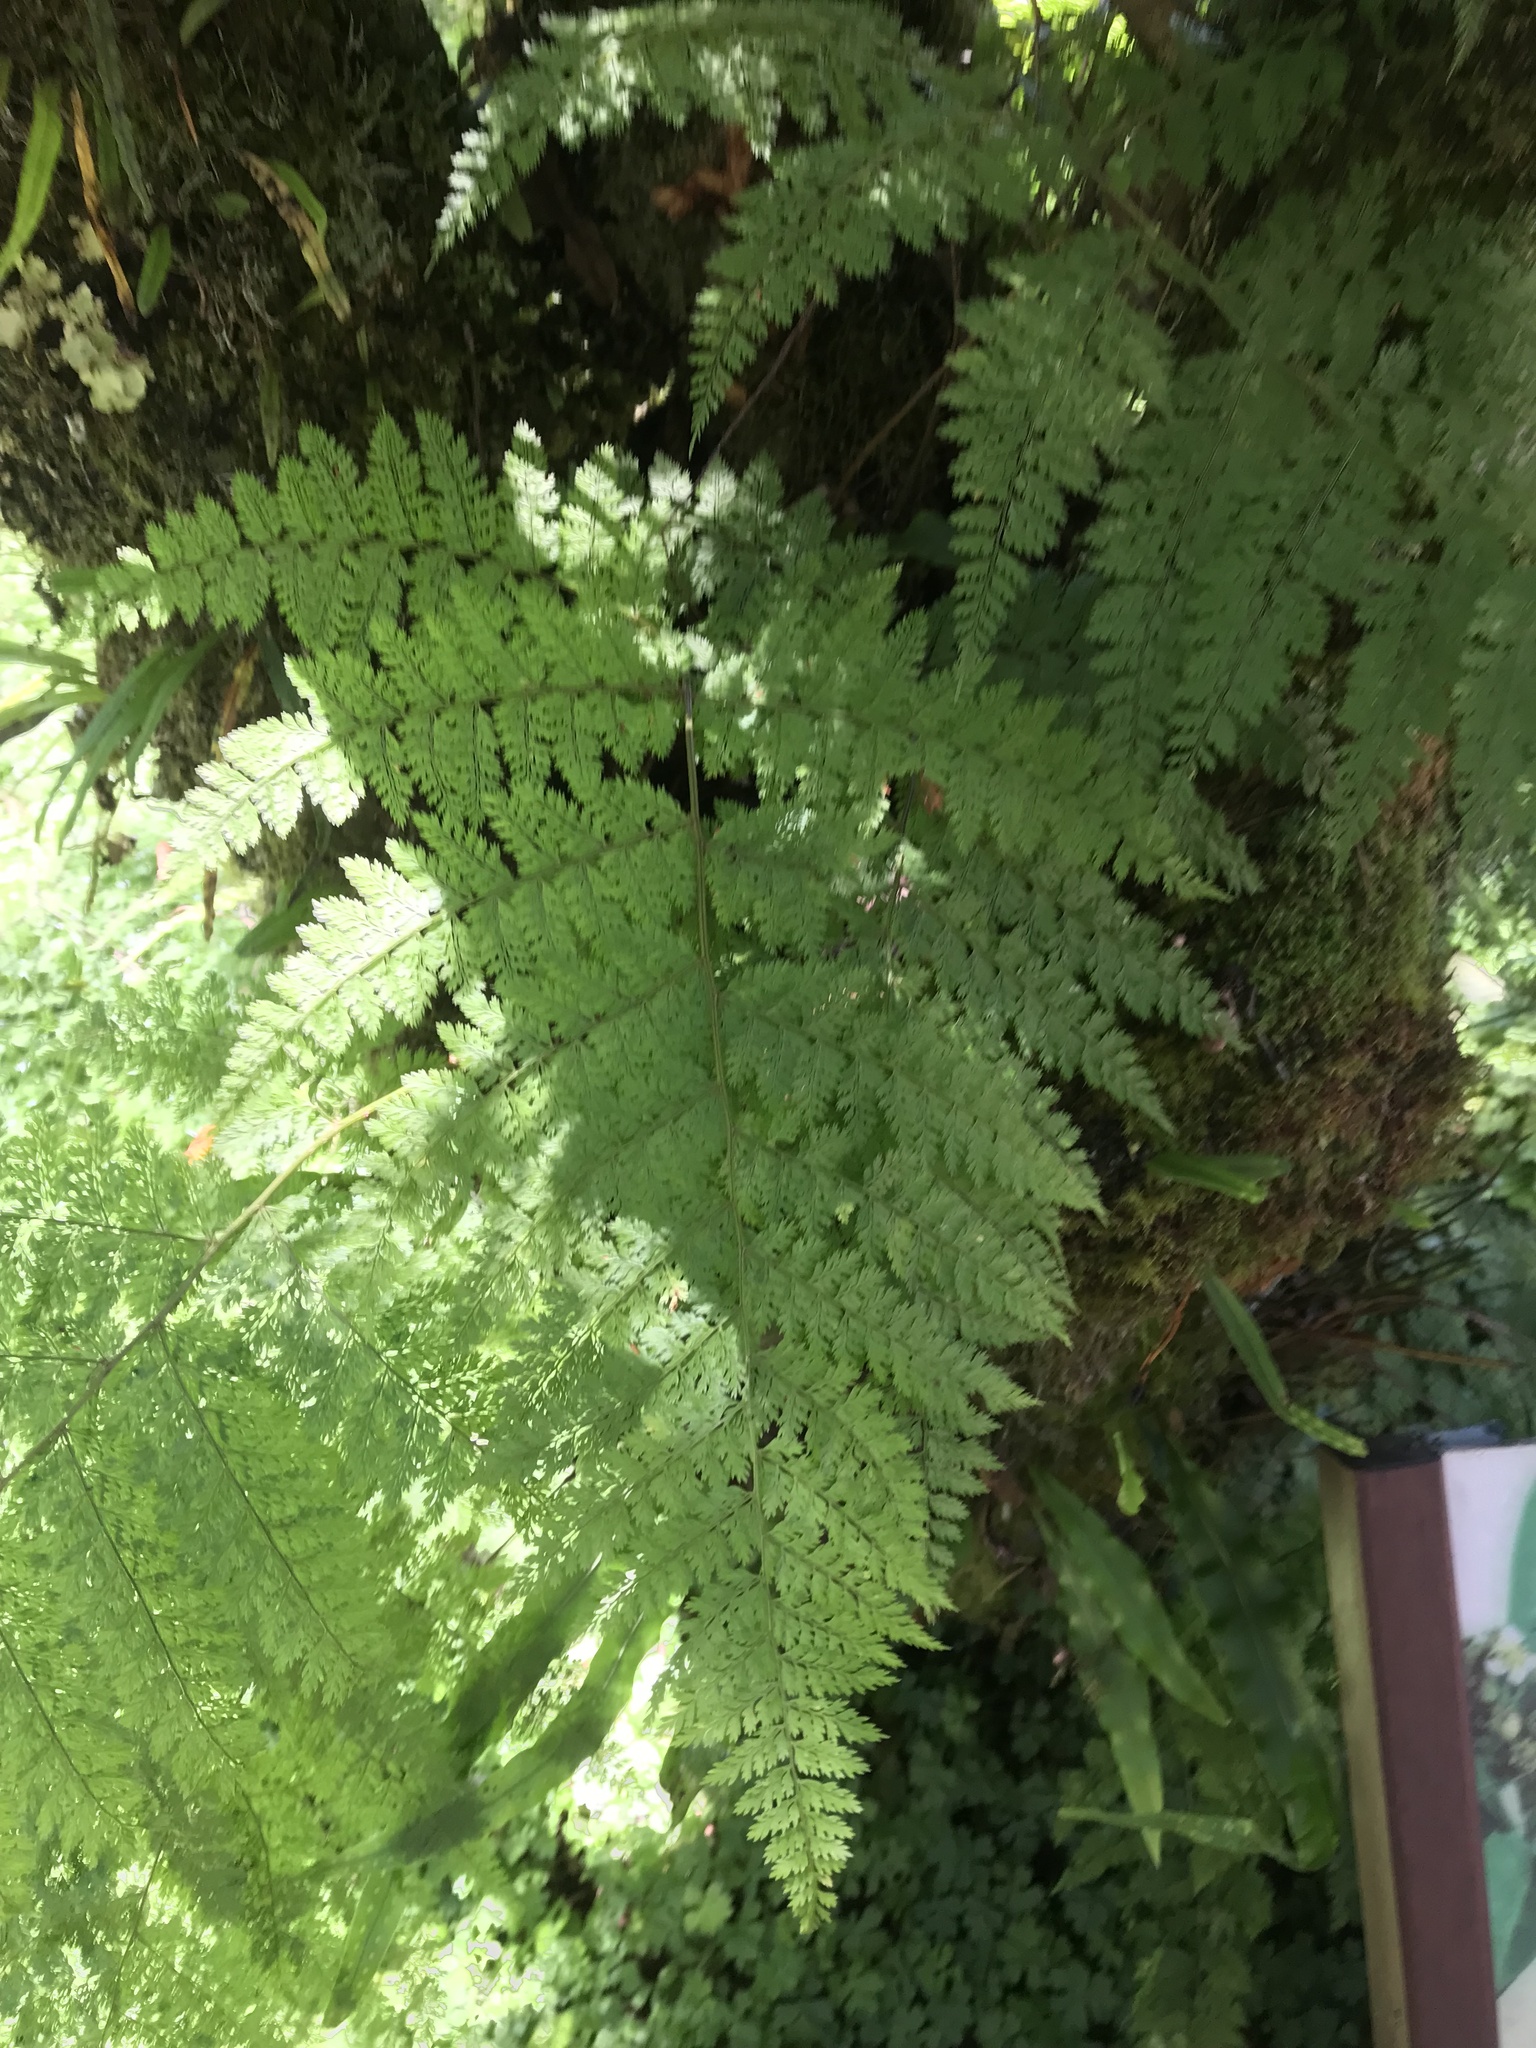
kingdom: Plantae
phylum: Tracheophyta
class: Polypodiopsida
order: Polypodiales
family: Davalliaceae
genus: Davallia
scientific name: Davallia perdurans
